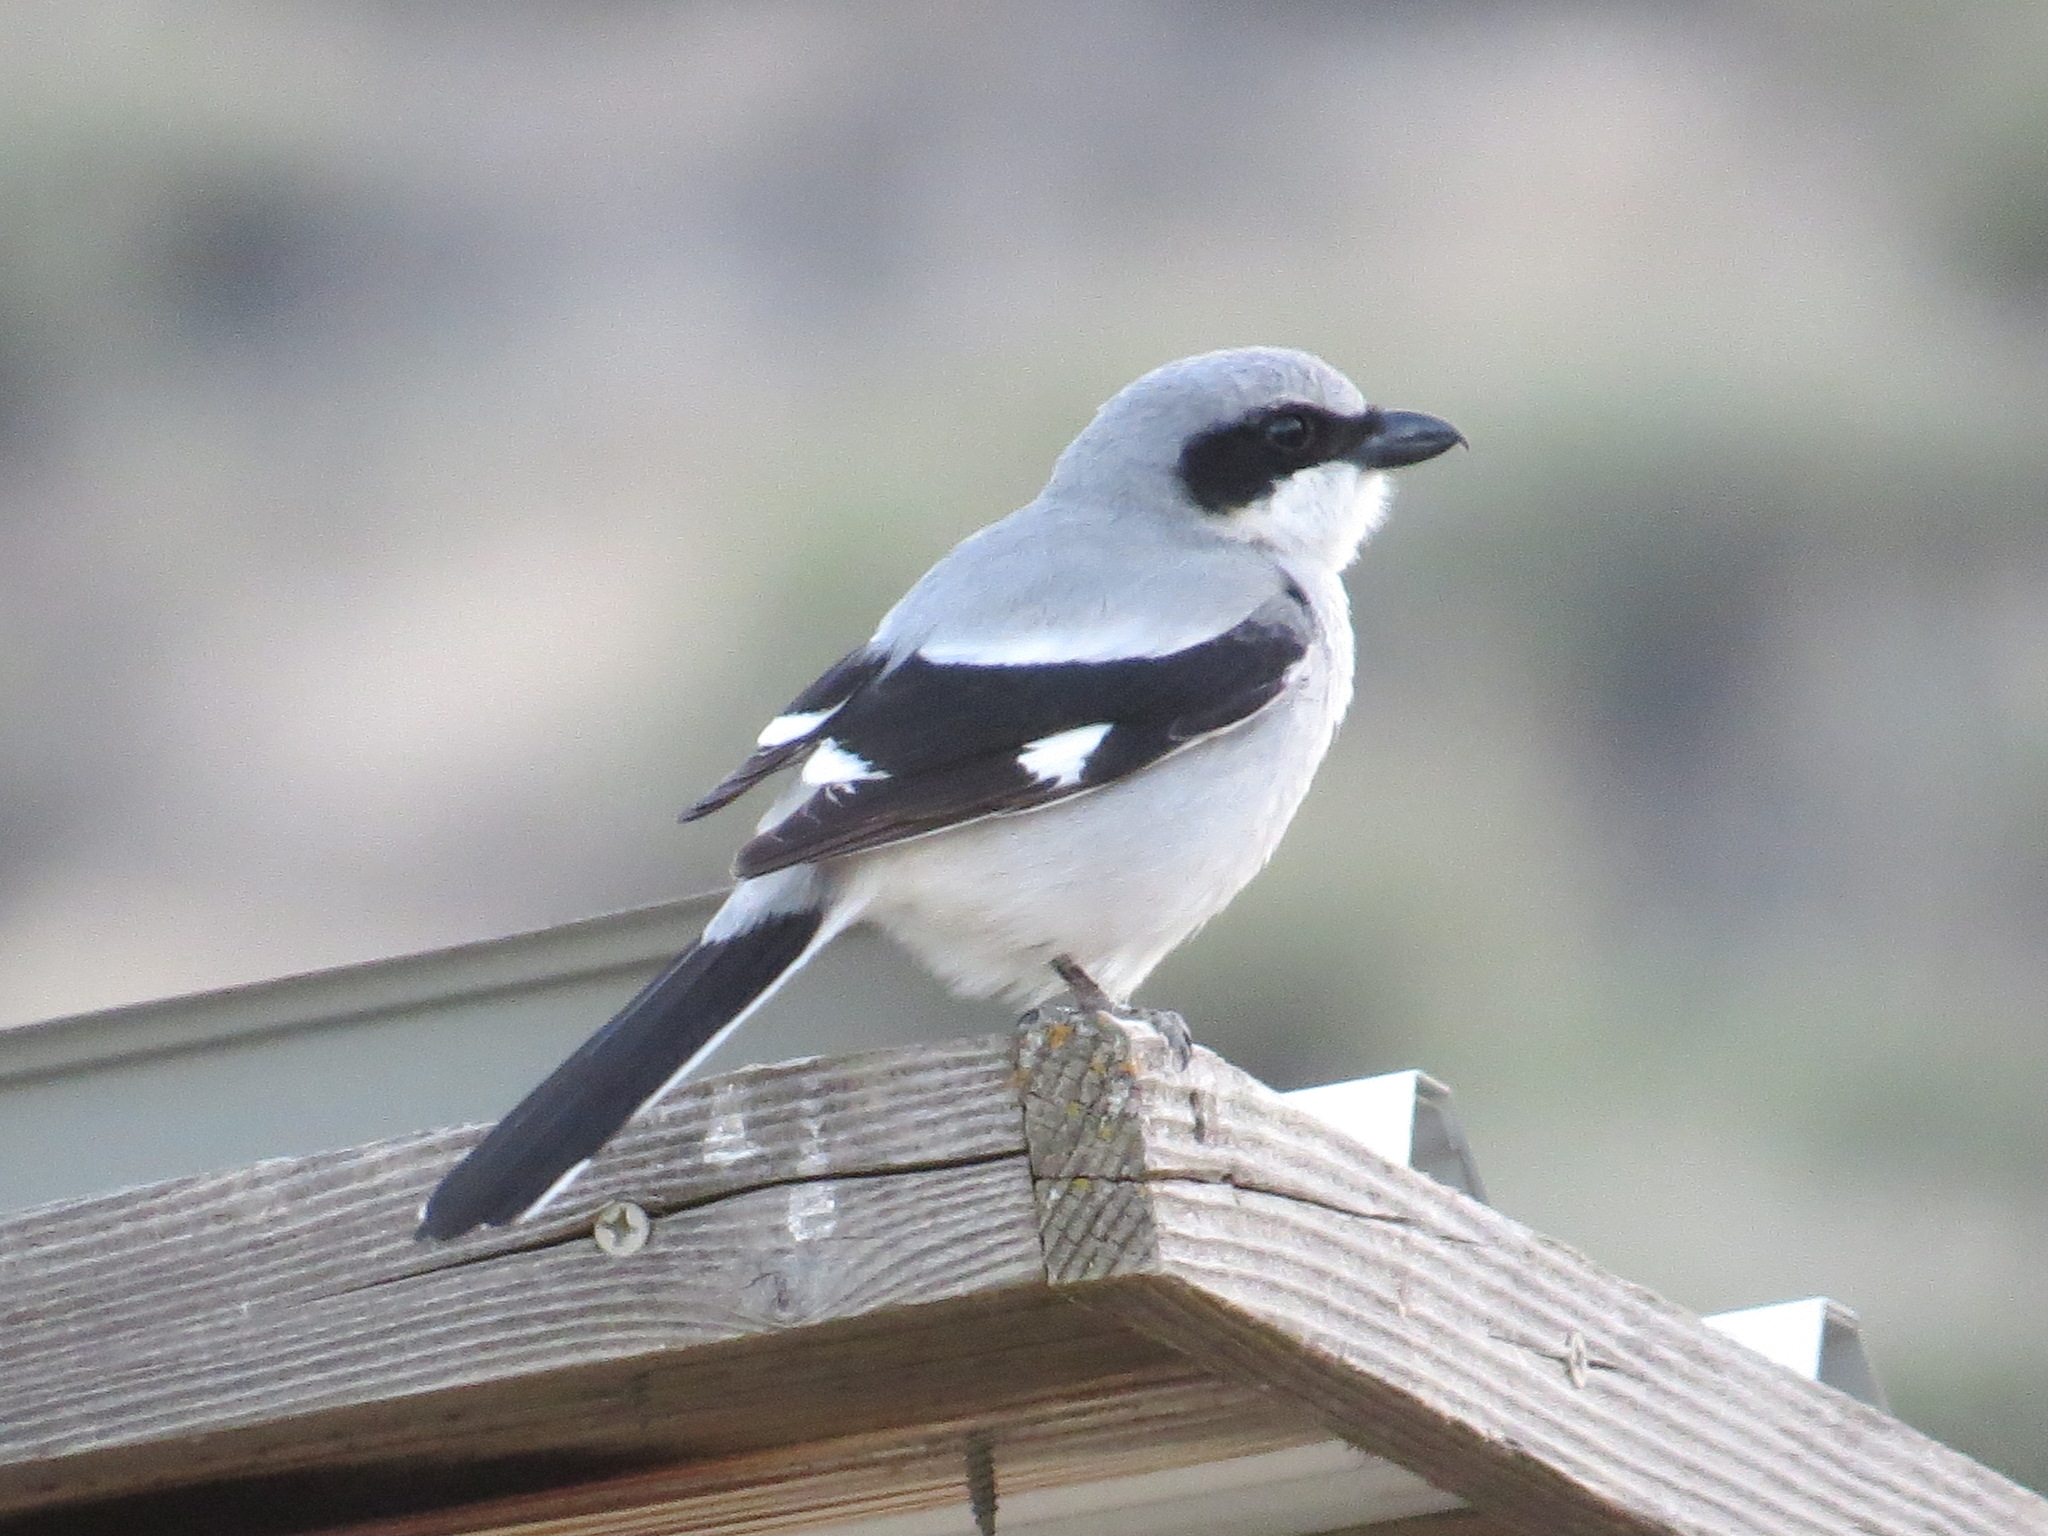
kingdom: Animalia
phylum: Chordata
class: Aves
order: Passeriformes
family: Laniidae
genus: Lanius
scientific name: Lanius ludovicianus
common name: Loggerhead shrike
